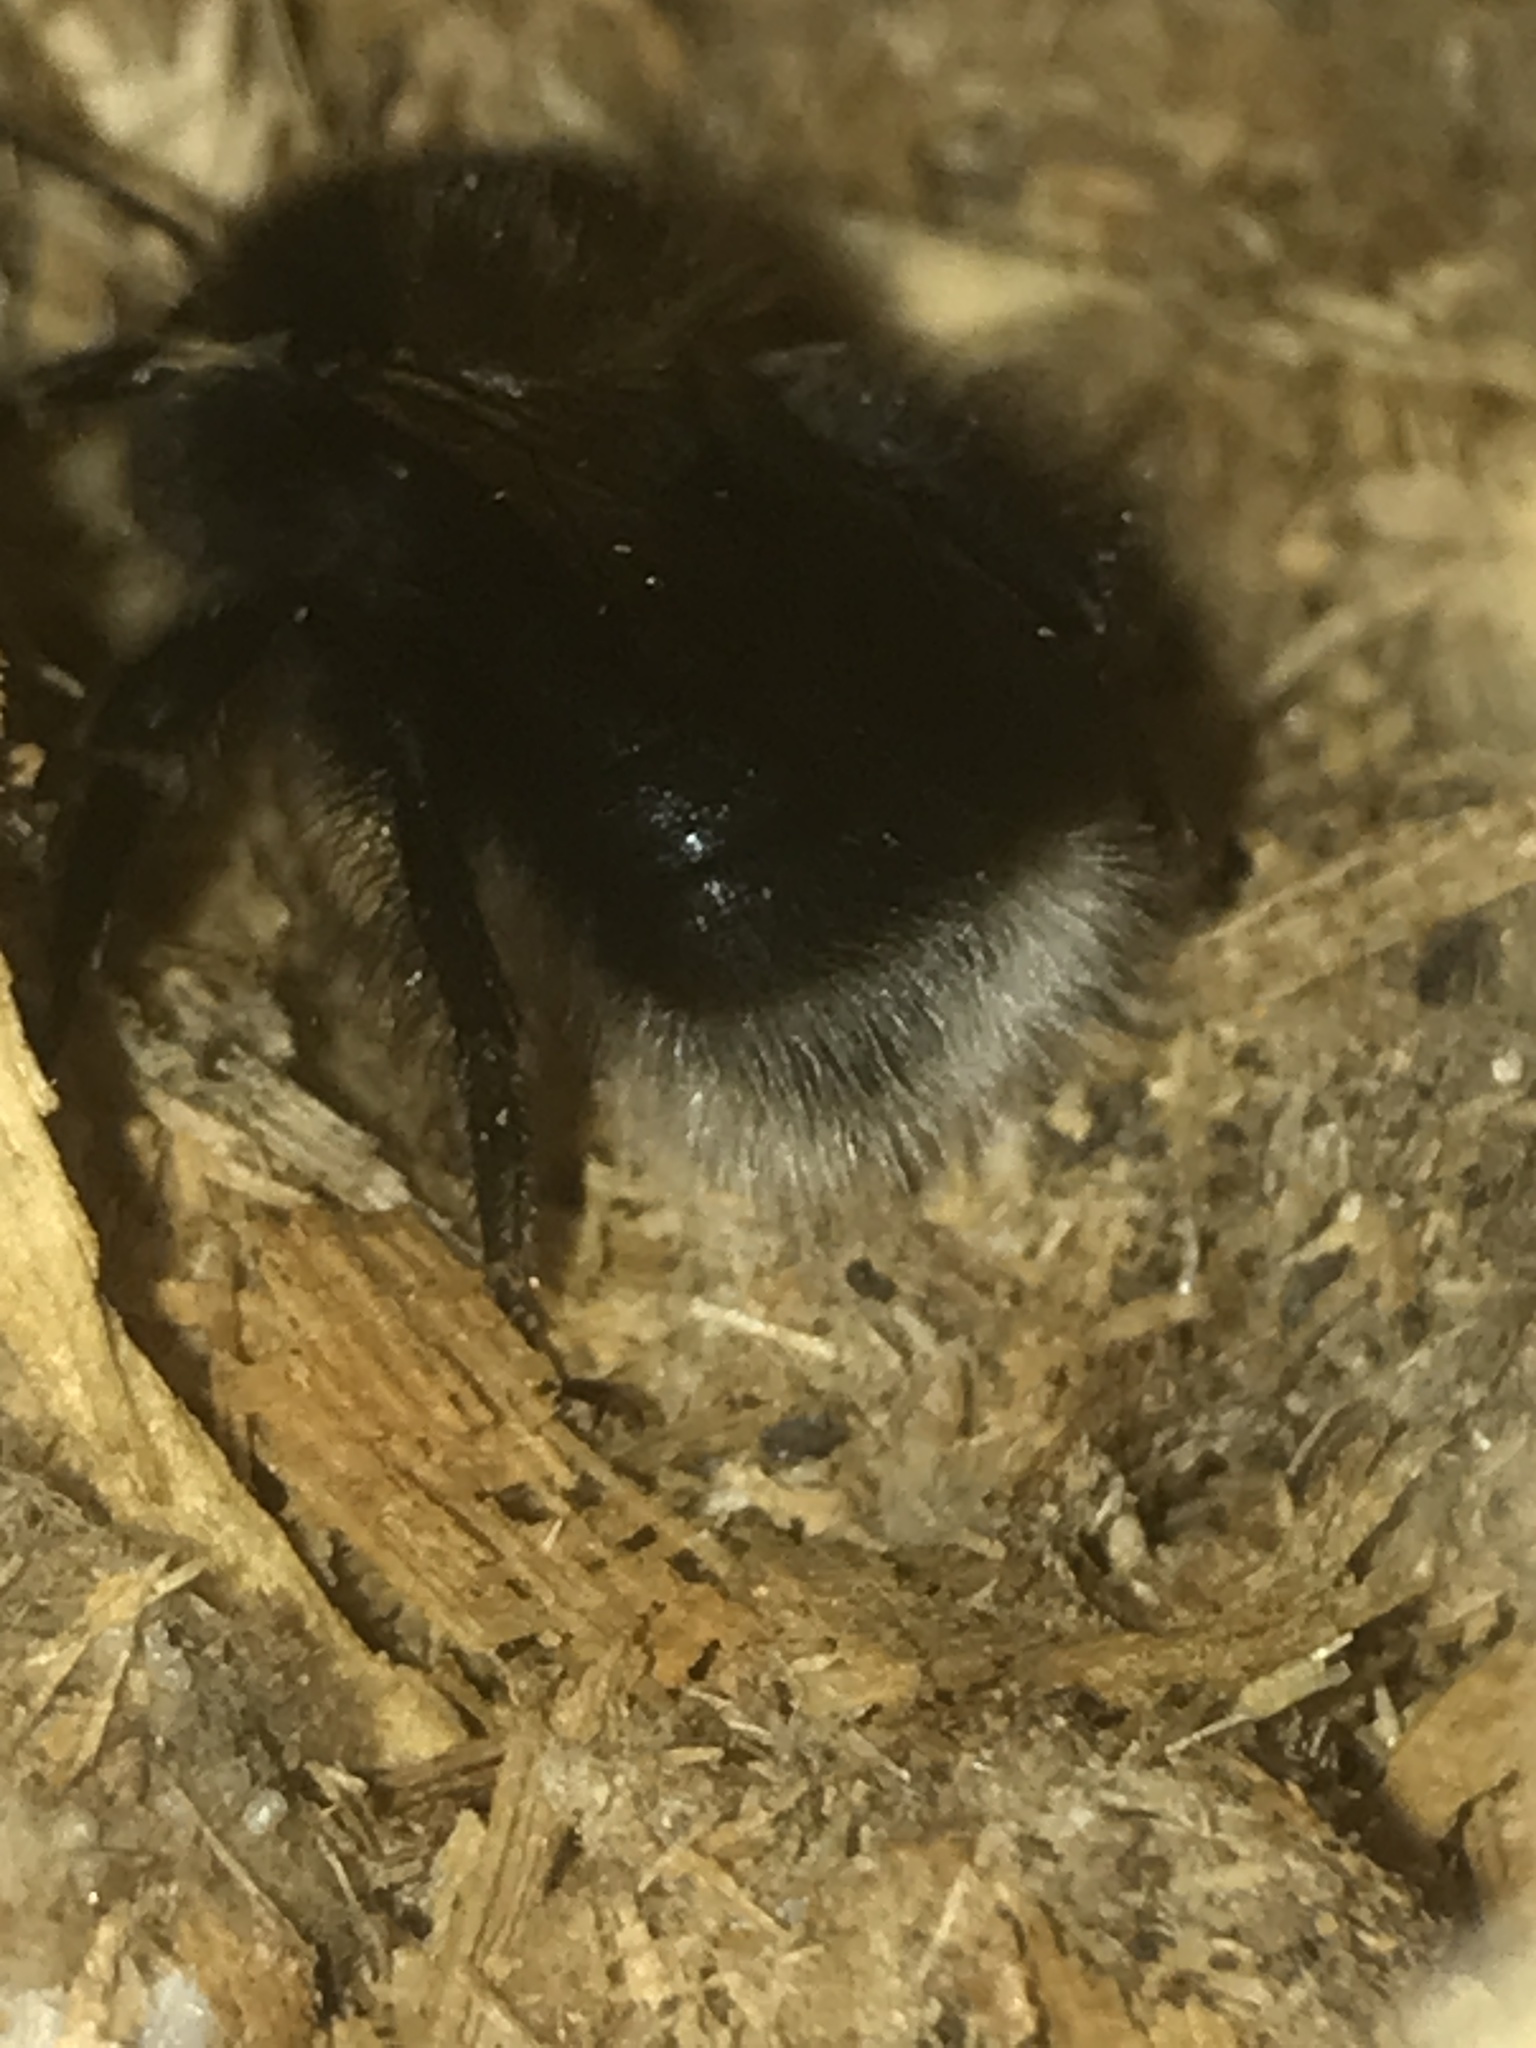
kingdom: Animalia
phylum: Arthropoda
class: Insecta
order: Hymenoptera
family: Apidae
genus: Bombus
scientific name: Bombus hypnorum
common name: New garden bumblebee
